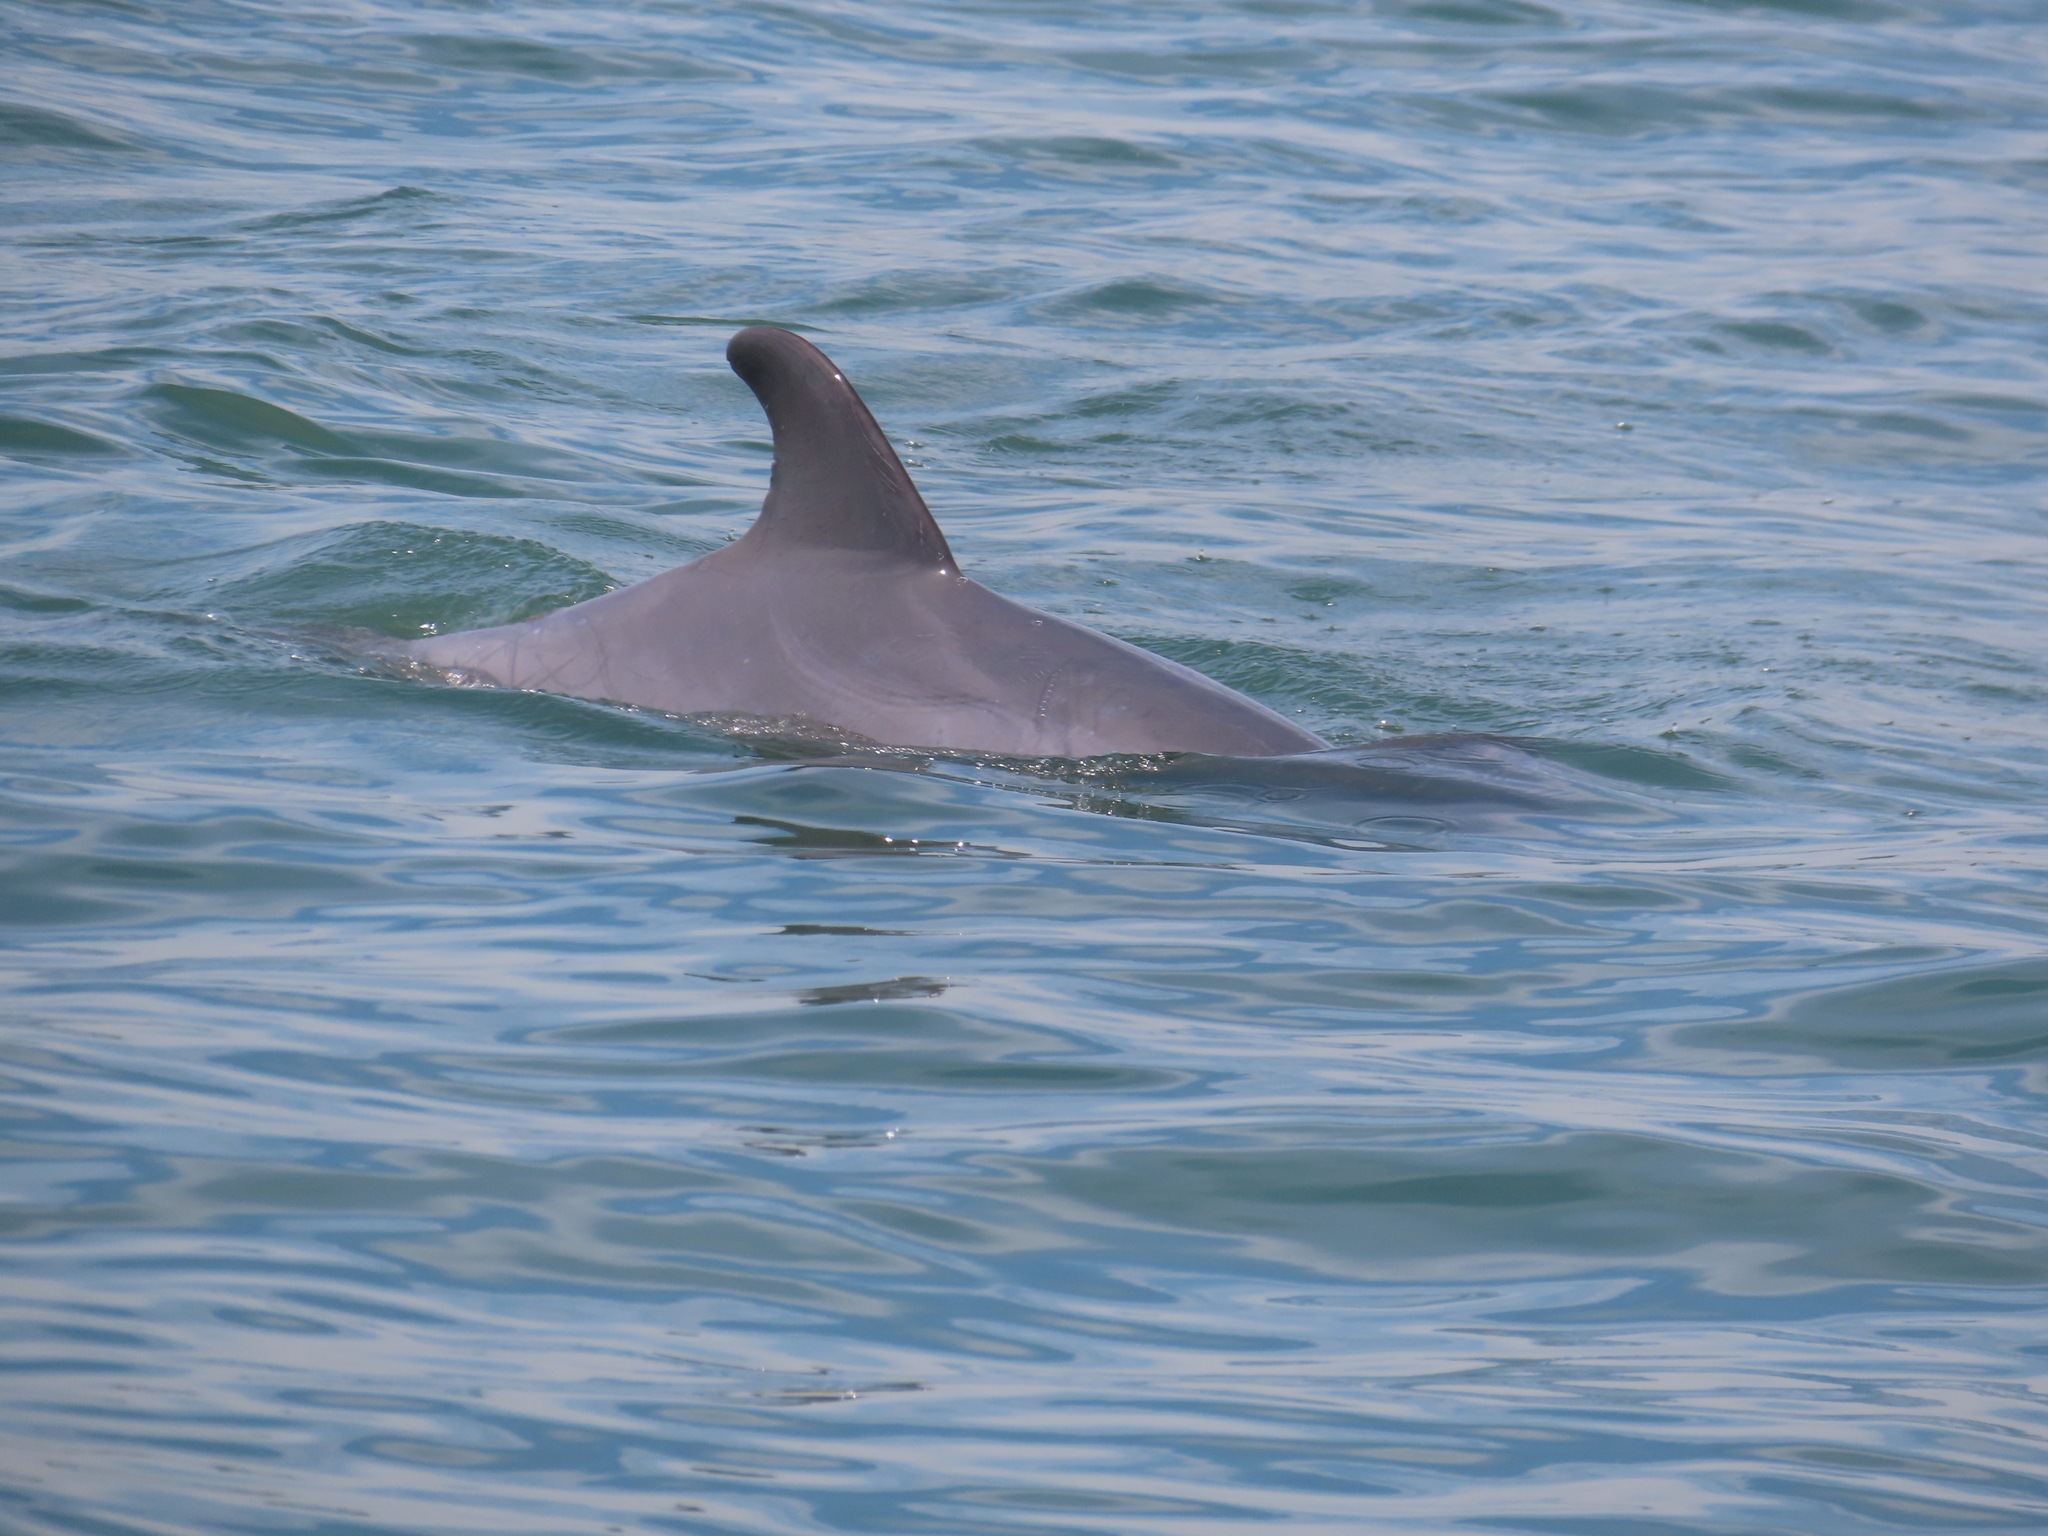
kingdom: Animalia
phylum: Chordata
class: Mammalia
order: Cetacea
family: Delphinidae
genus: Tursiops
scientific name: Tursiops truncatus
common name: Bottlenose dolphin
